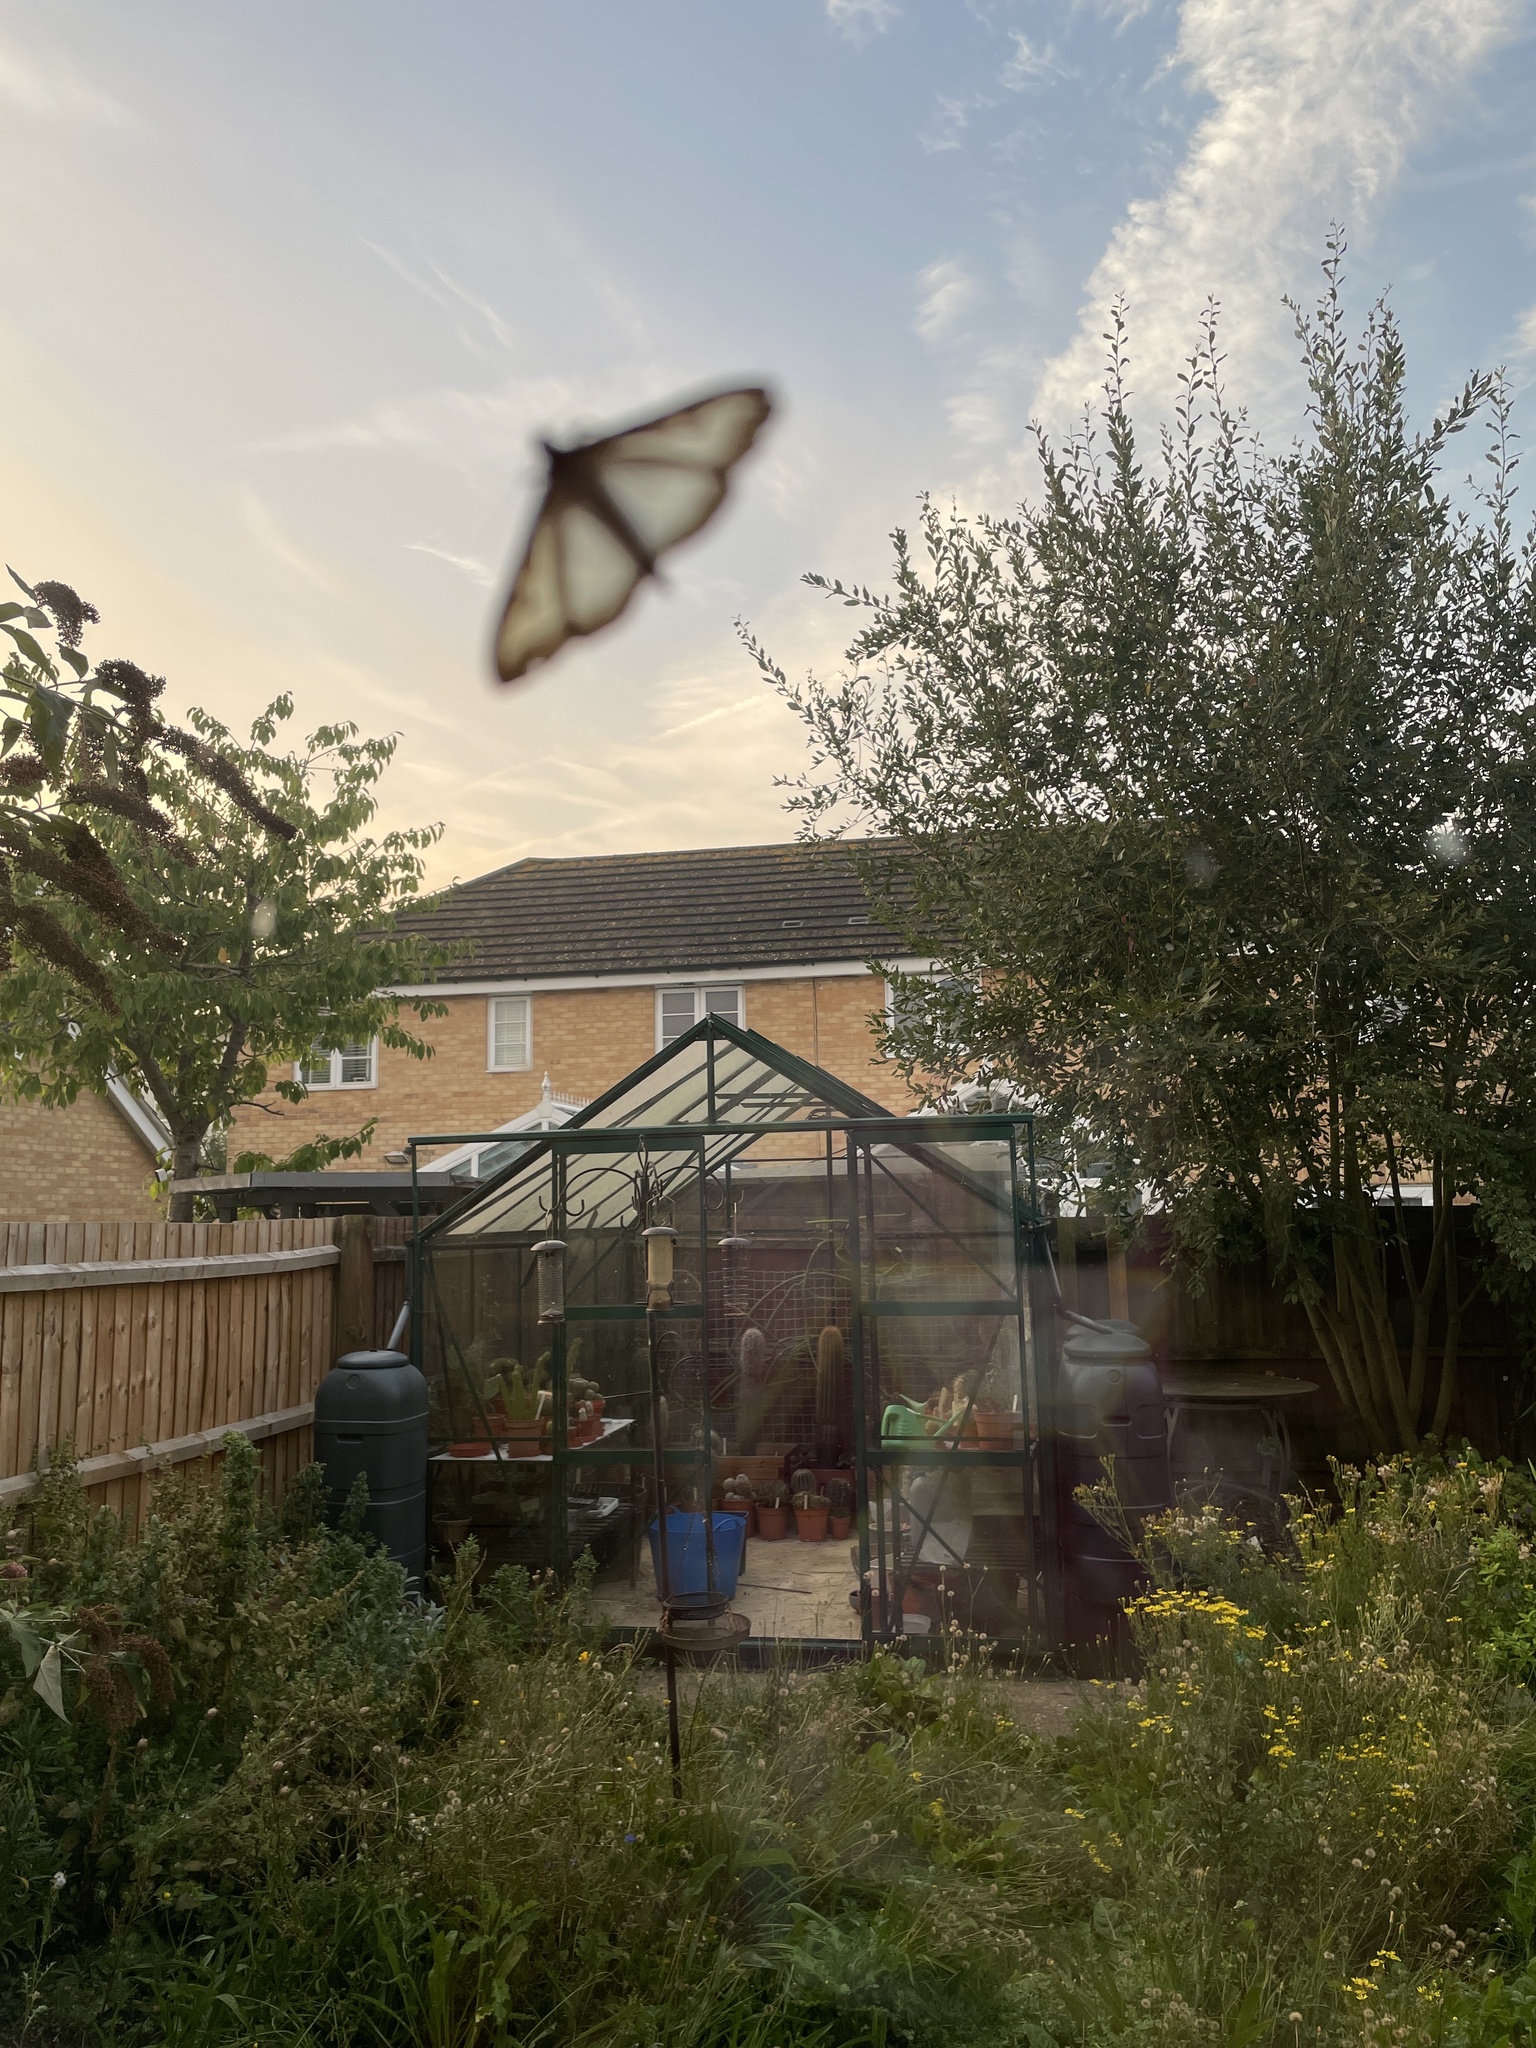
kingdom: Animalia
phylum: Arthropoda
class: Insecta
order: Lepidoptera
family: Crambidae
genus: Cydalima
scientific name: Cydalima perspectalis
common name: Box tree moth
